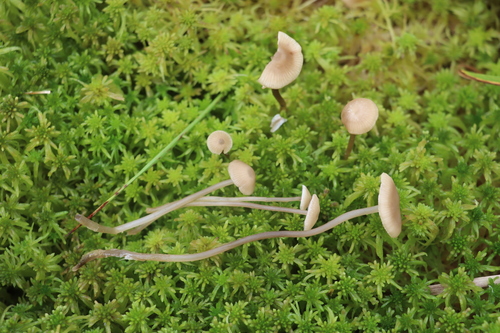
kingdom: Fungi
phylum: Basidiomycota
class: Agaricomycetes
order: Agaricales
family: Lyophyllaceae
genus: Sphagnurus
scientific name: Sphagnurus paluster
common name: Sphagnum greyling
